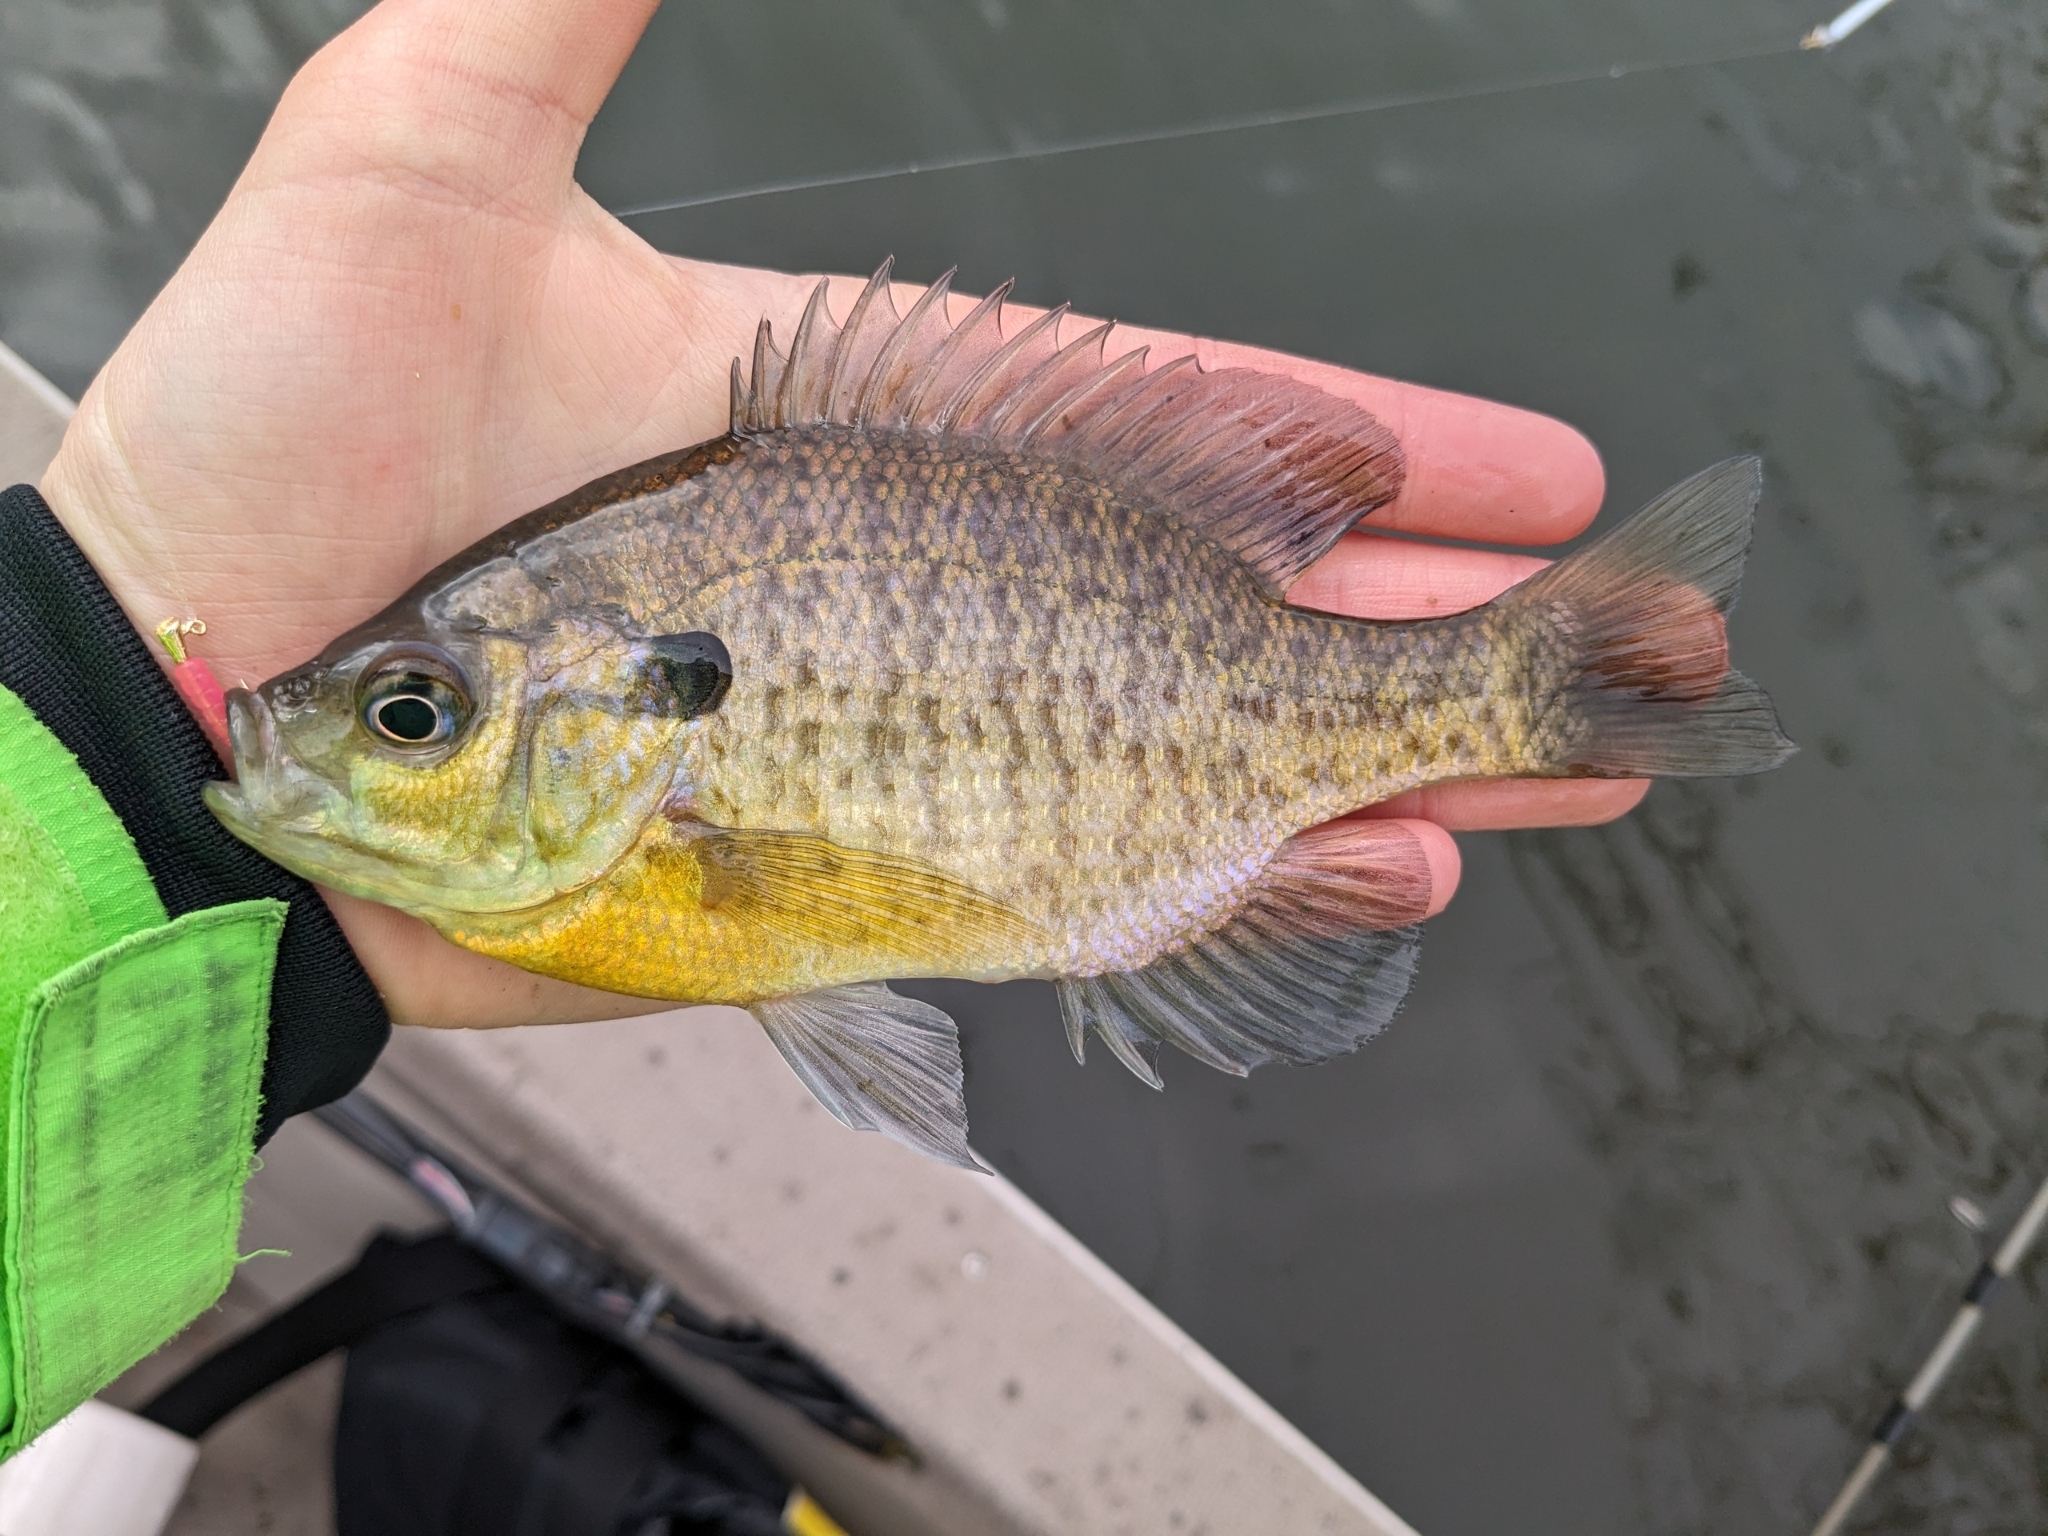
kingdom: Animalia
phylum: Chordata
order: Perciformes
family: Centrarchidae
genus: Lepomis
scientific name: Lepomis macrochirus
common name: Bluegill
